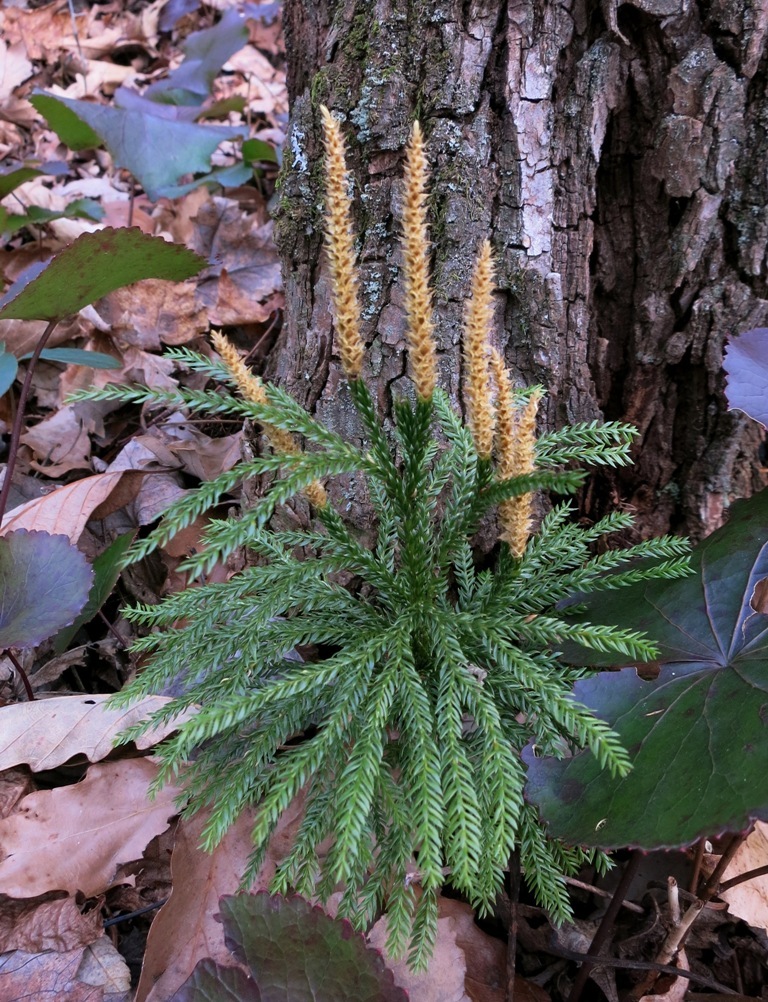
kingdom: Plantae
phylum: Tracheophyta
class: Lycopodiopsida
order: Lycopodiales
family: Lycopodiaceae
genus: Dendrolycopodium
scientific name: Dendrolycopodium obscurum
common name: Common ground-pine
